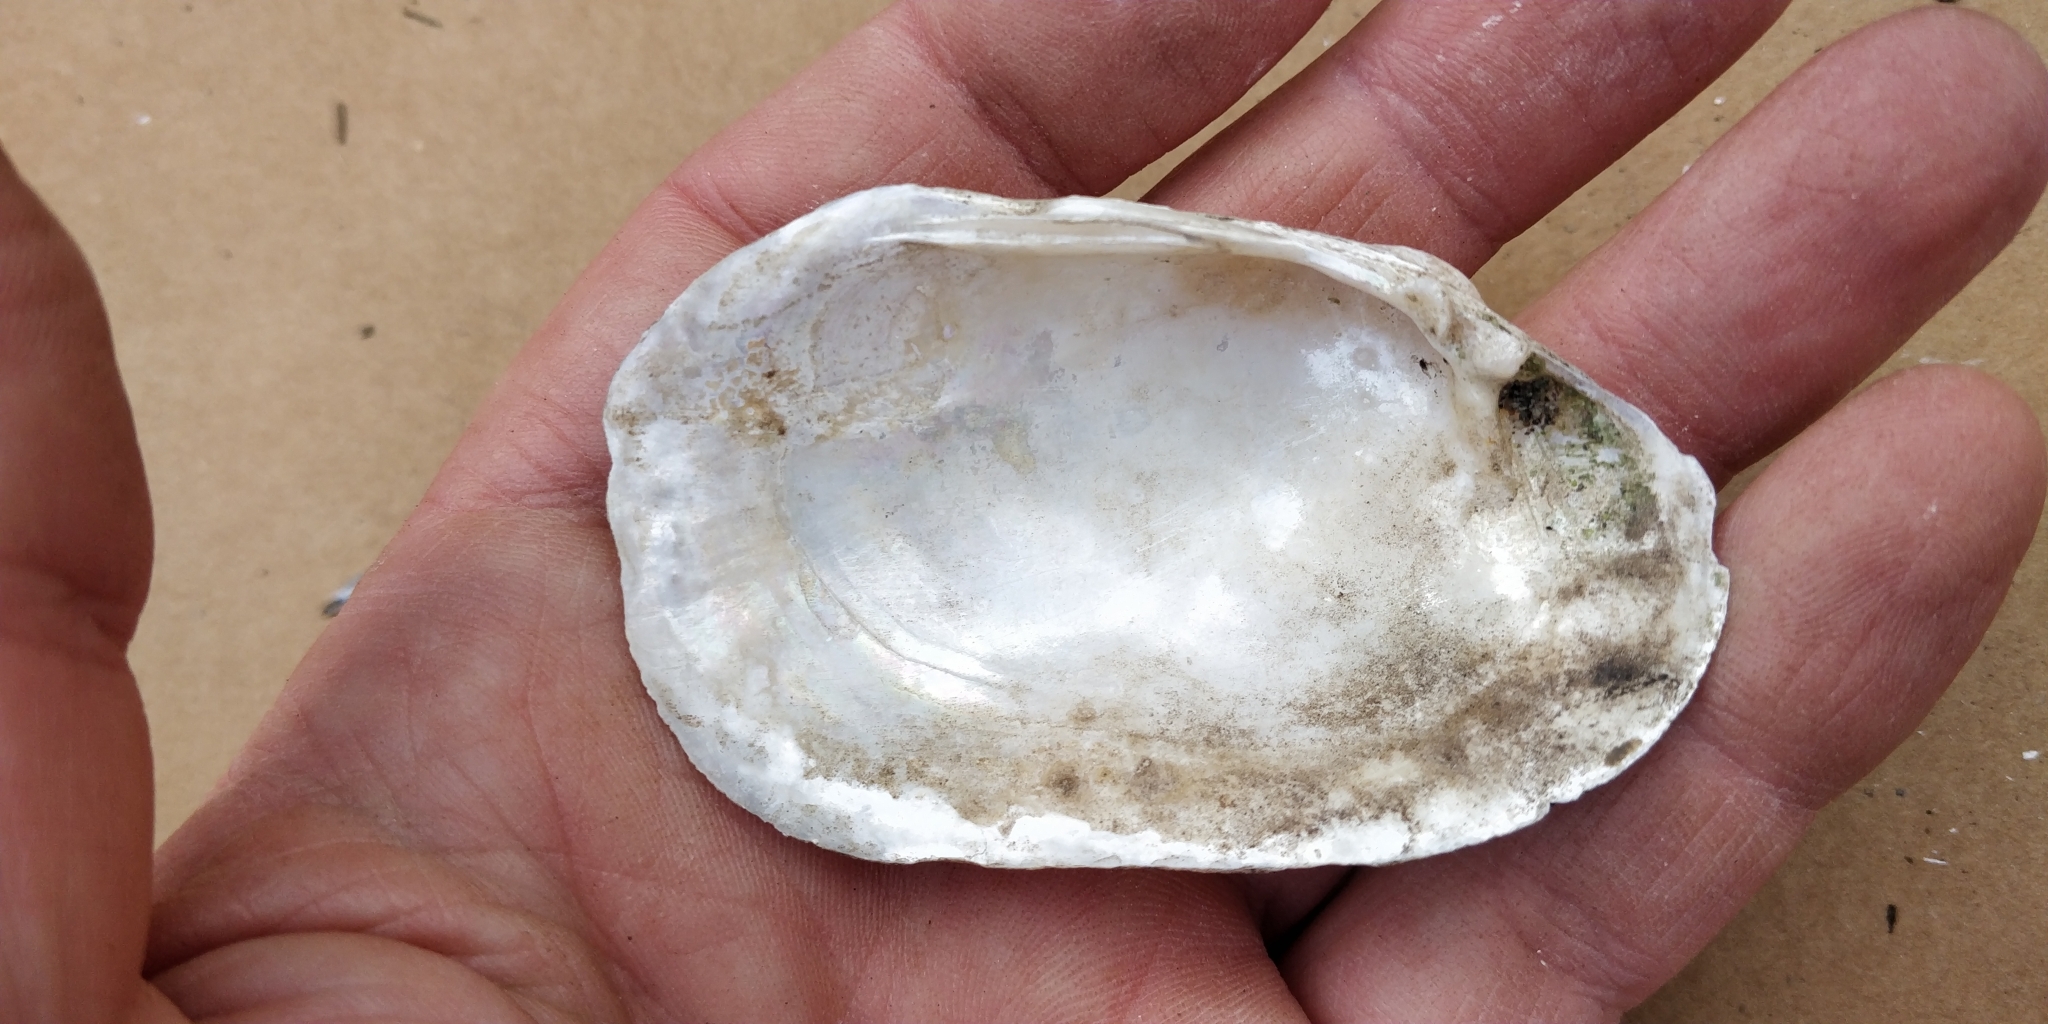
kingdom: Animalia
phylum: Mollusca
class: Bivalvia
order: Unionida
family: Unionidae
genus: Lampsilis
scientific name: Lampsilis siliquoidea
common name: Fatmucket
